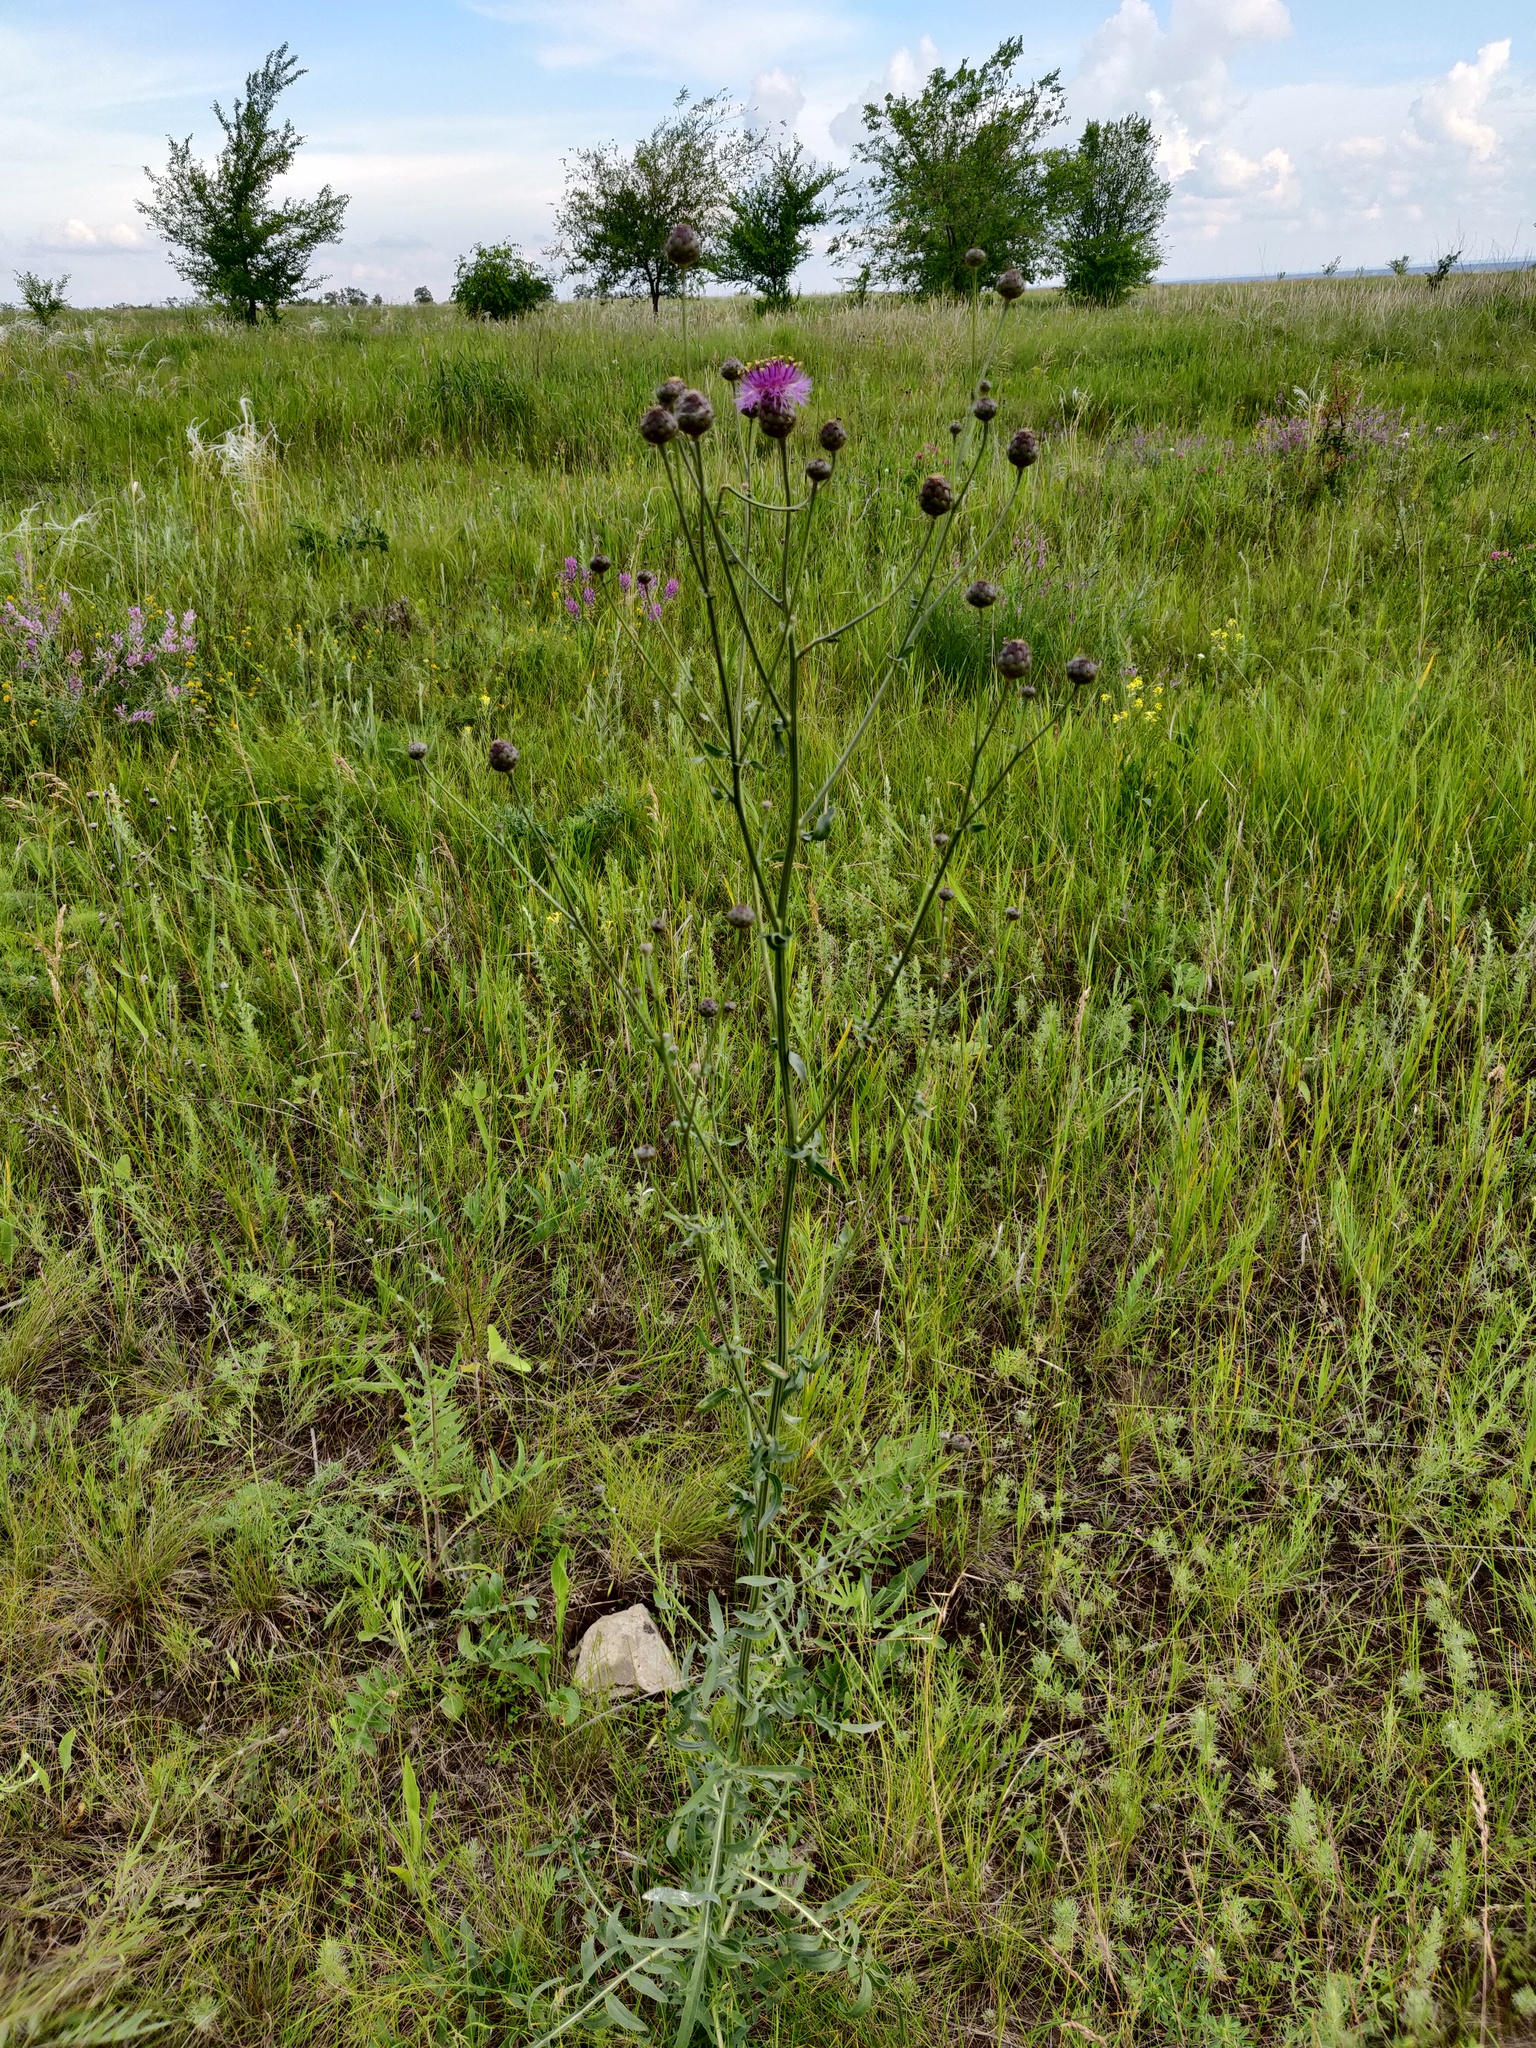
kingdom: Plantae
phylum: Tracheophyta
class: Magnoliopsida
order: Asterales
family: Asteraceae
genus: Centaurea
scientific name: Centaurea adpressa
